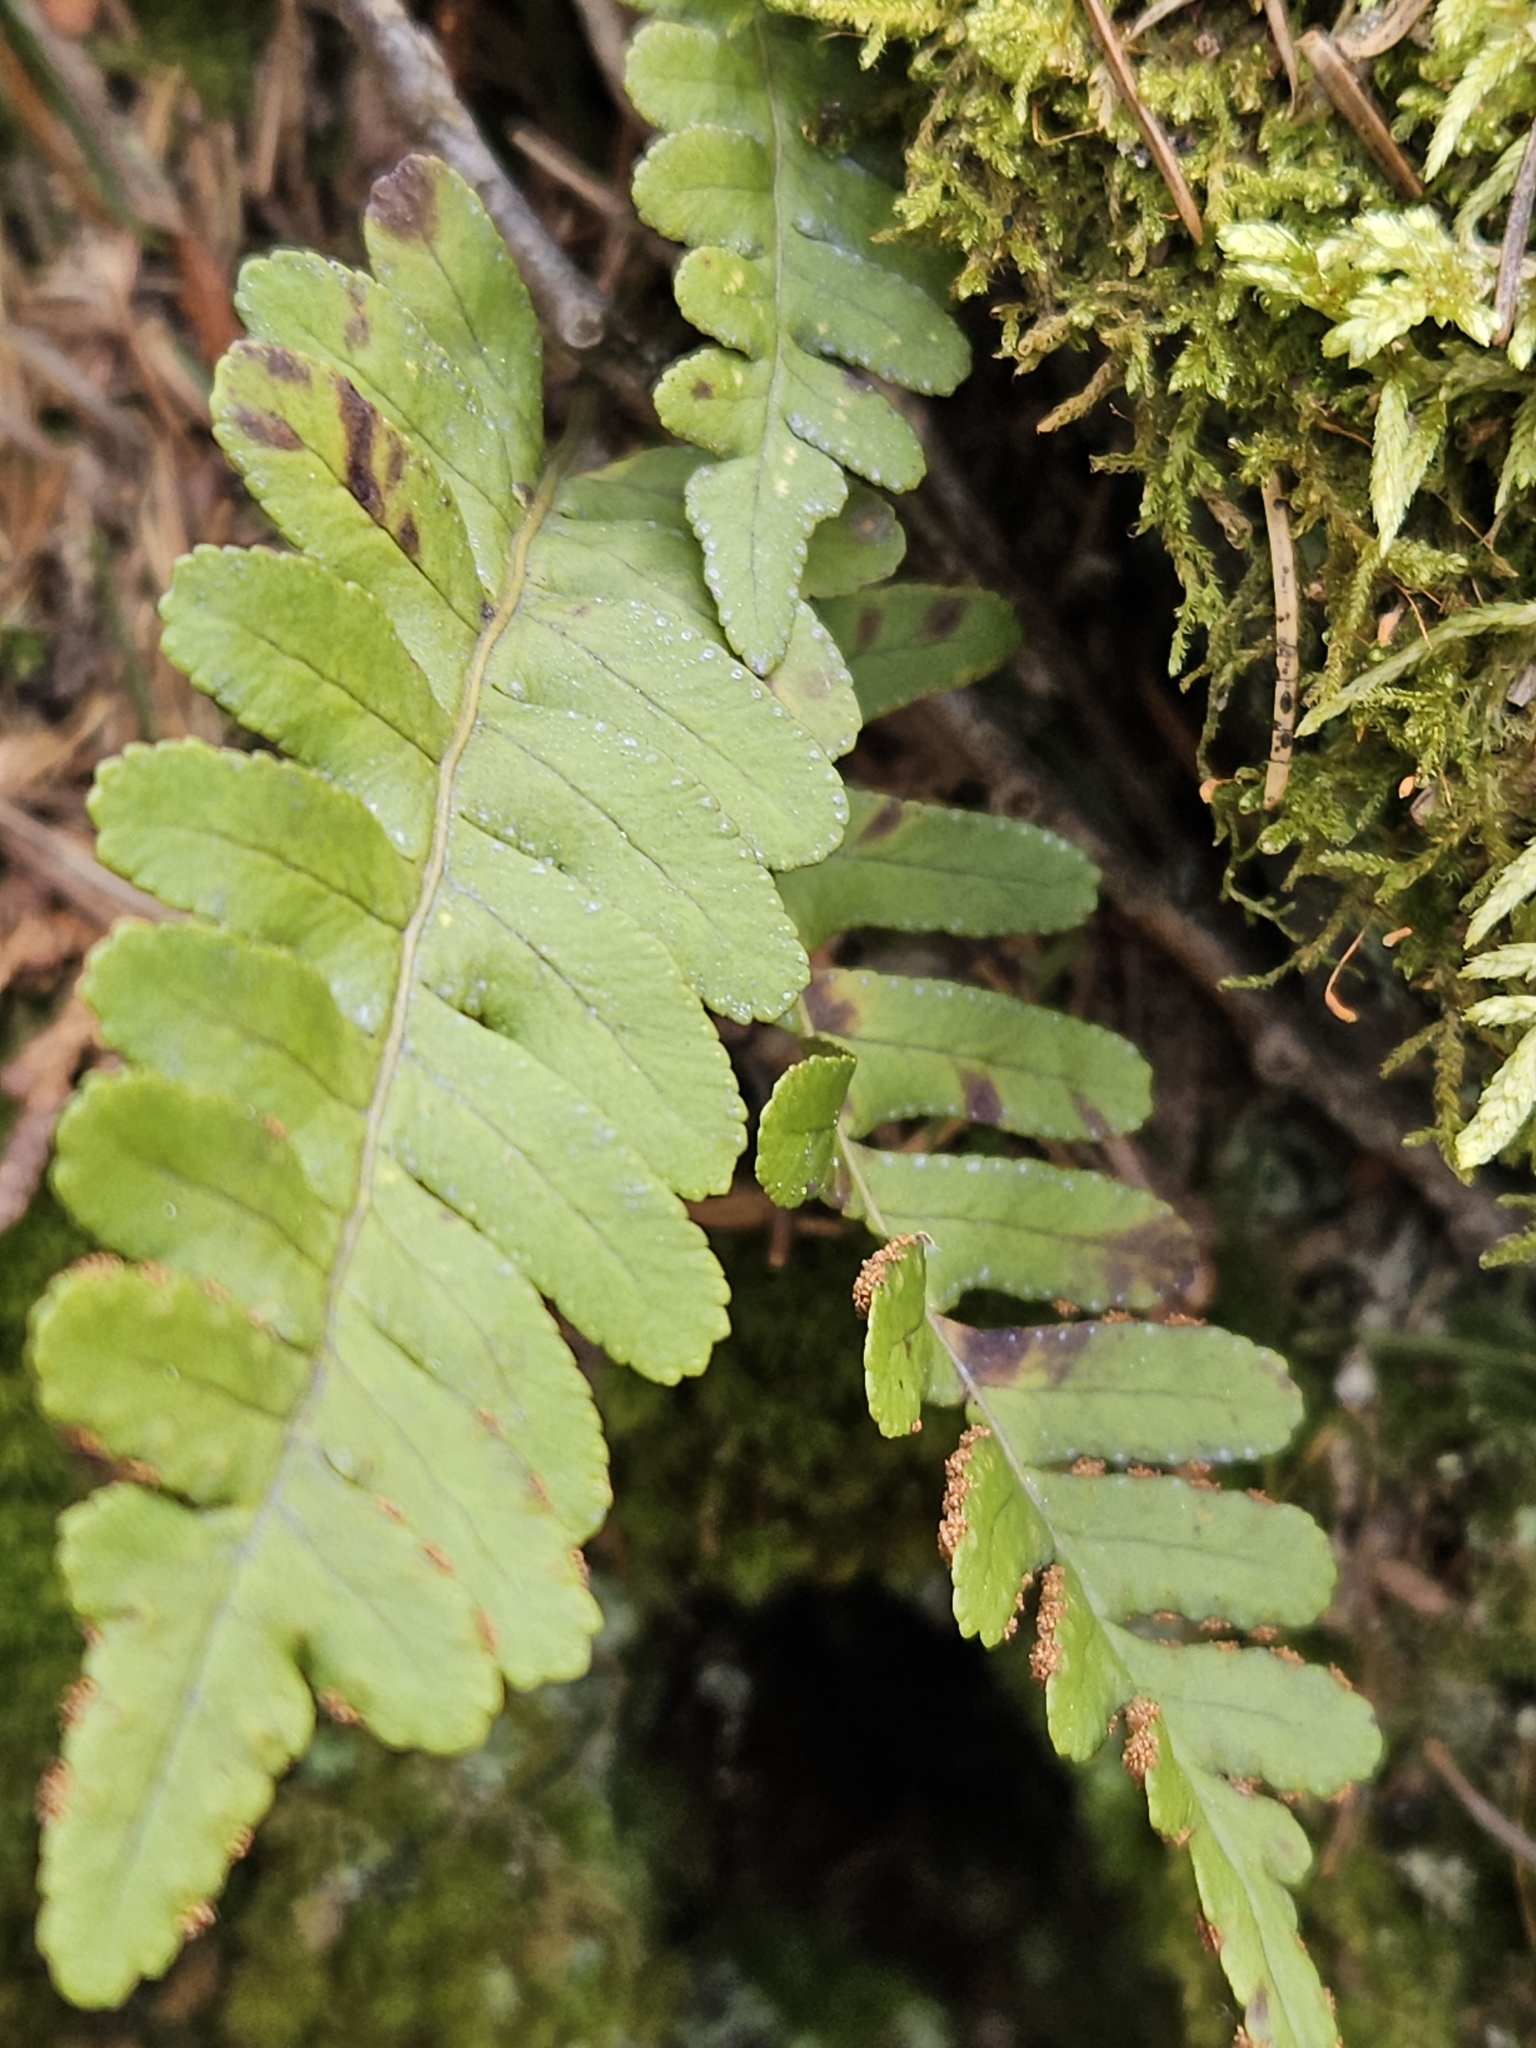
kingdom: Plantae
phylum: Tracheophyta
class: Polypodiopsida
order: Polypodiales
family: Polypodiaceae
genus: Polypodium
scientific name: Polypodium virginianum
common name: American wall fern
